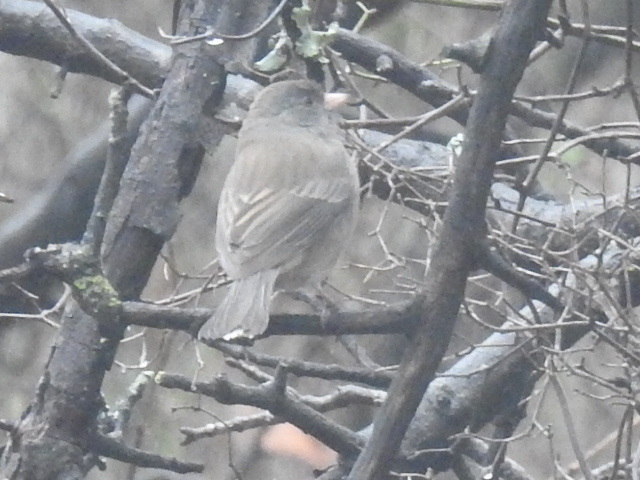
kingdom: Animalia
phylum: Chordata
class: Aves
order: Passeriformes
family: Passerellidae
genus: Junco
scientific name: Junco hyemalis
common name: Dark-eyed junco
